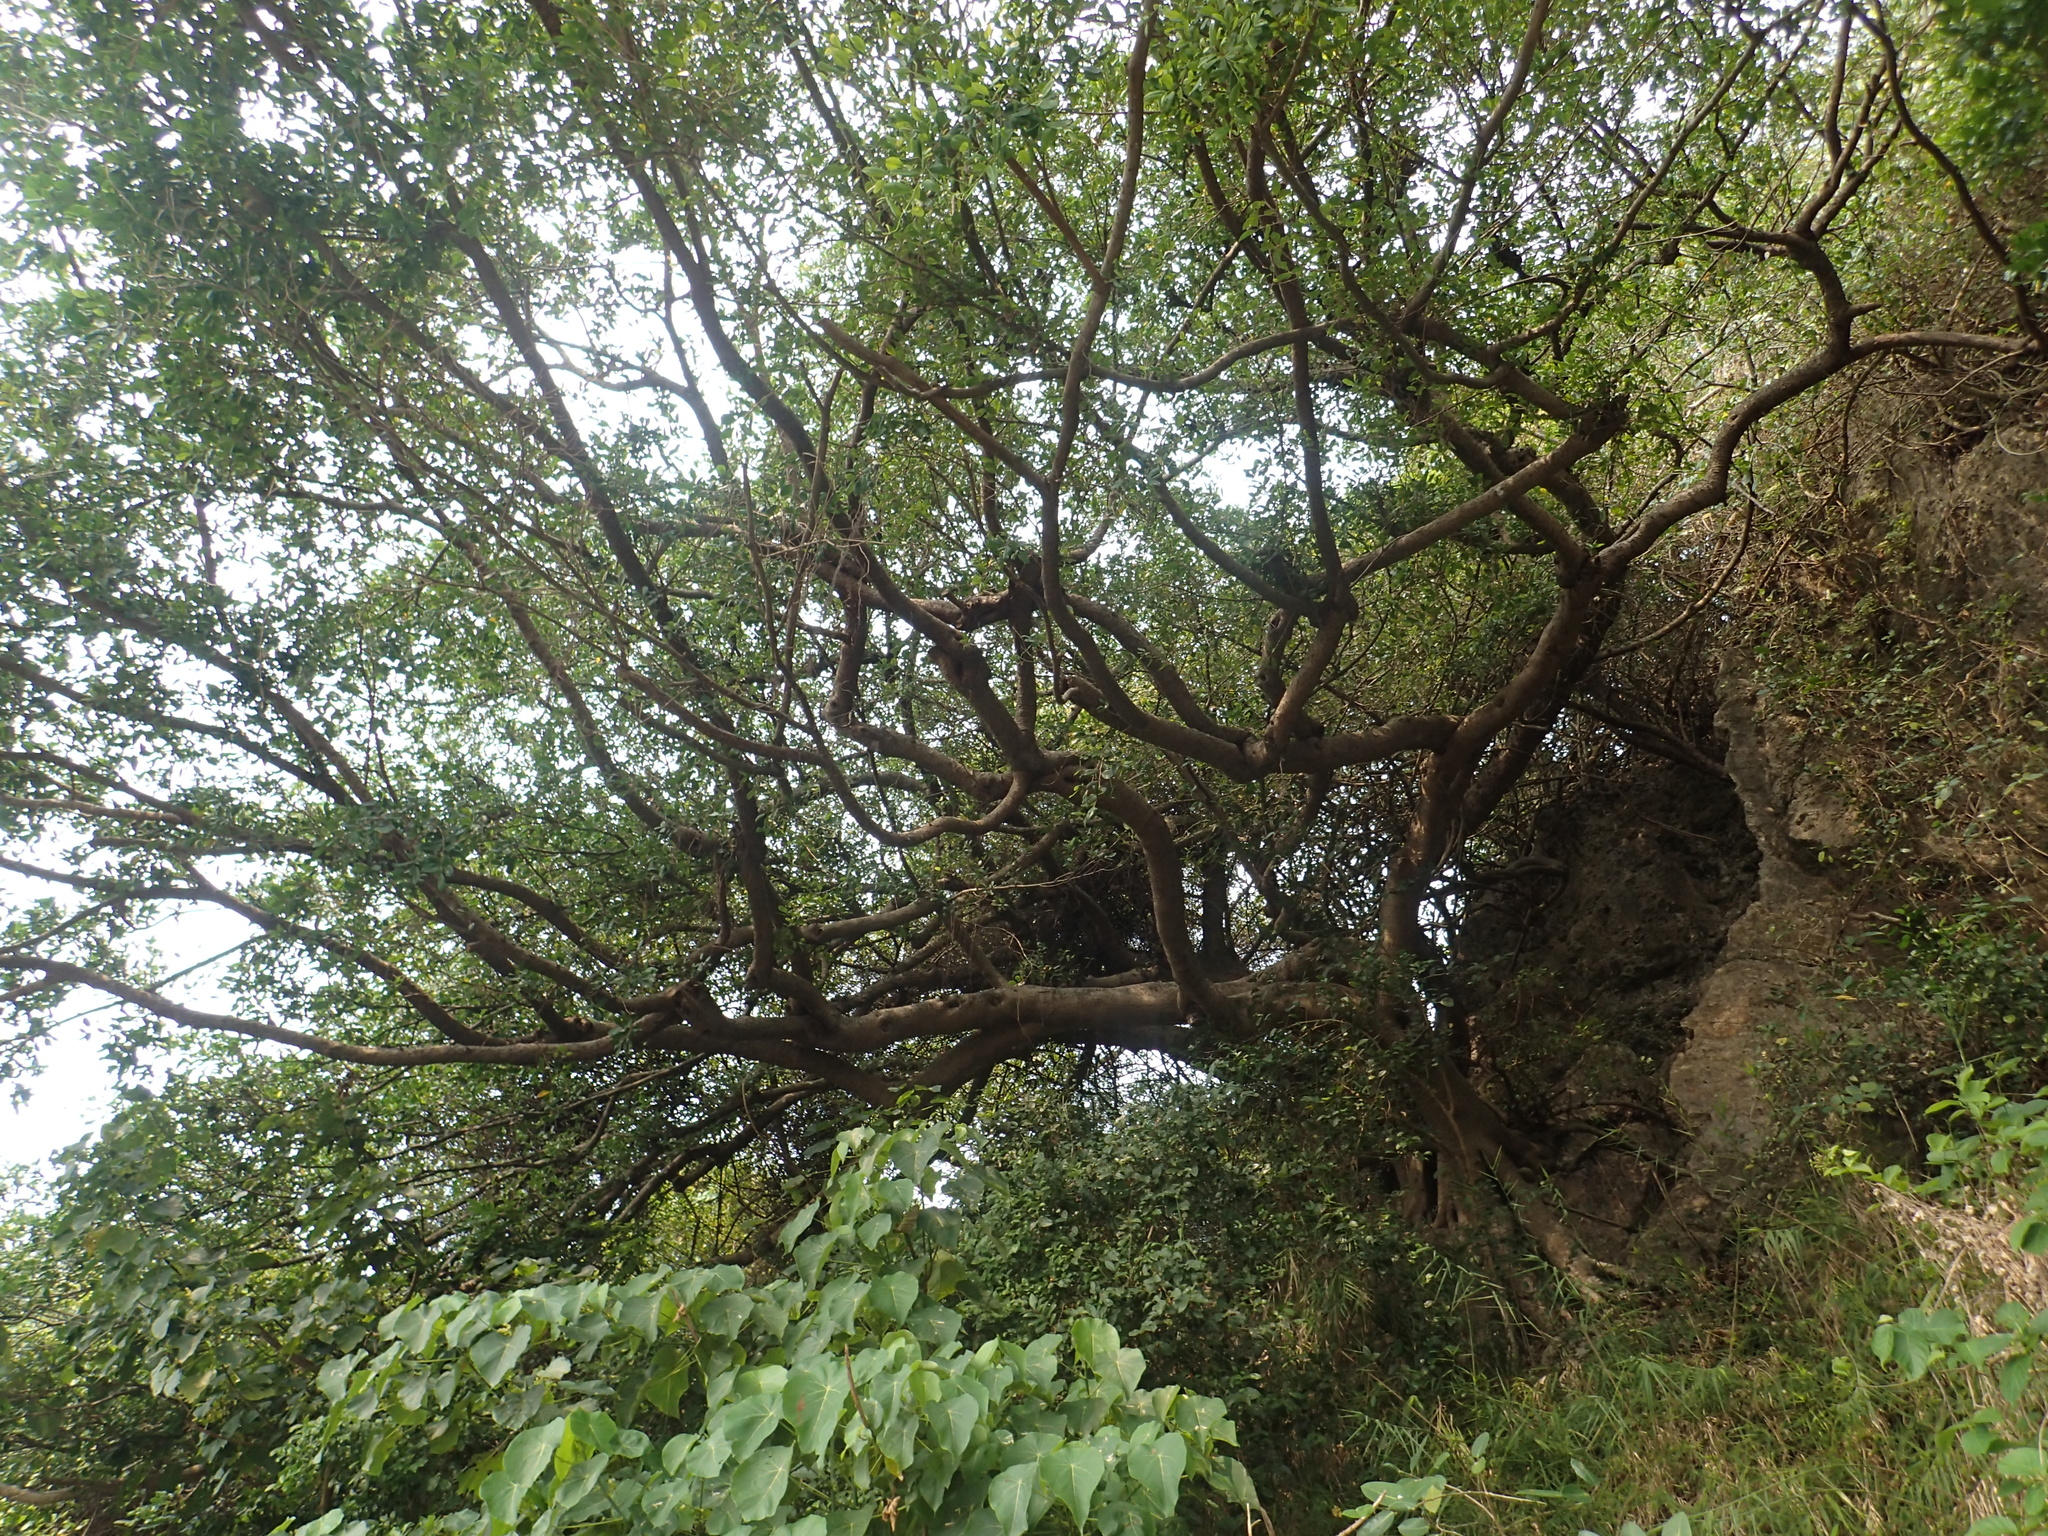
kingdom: Plantae
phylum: Tracheophyta
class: Magnoliopsida
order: Rosales
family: Moraceae
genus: Ficus
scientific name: Ficus microcarpa
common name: Chinese banyan
